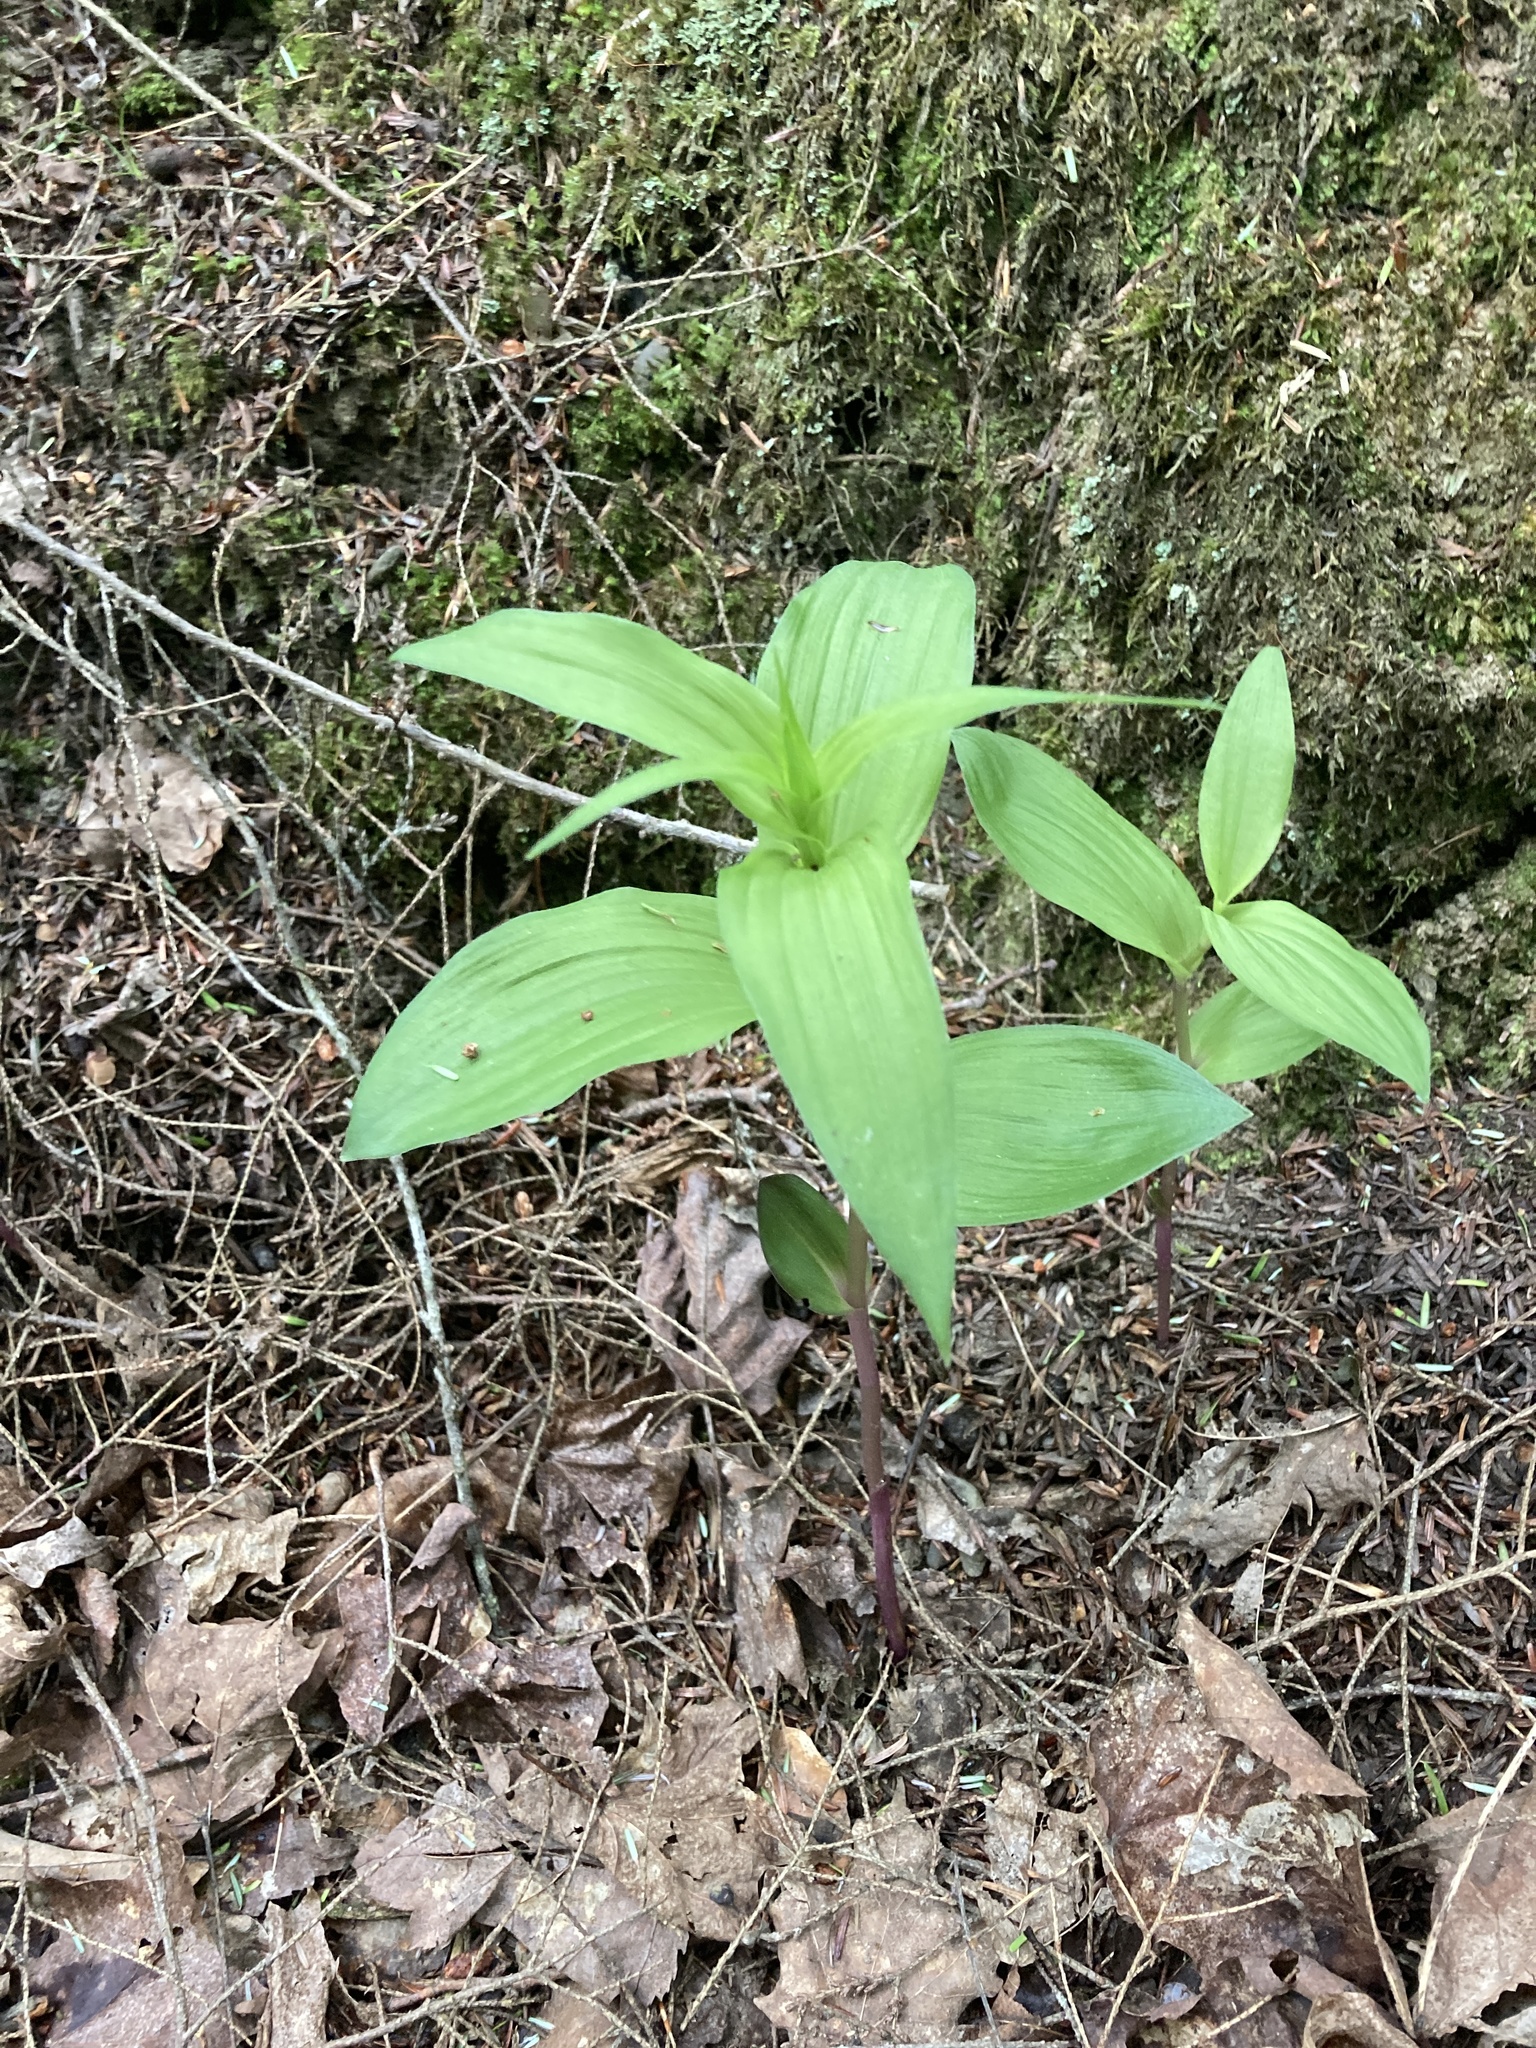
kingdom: Plantae
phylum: Tracheophyta
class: Liliopsida
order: Asparagales
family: Orchidaceae
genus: Epipactis
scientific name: Epipactis helleborine
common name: Broad-leaved helleborine
